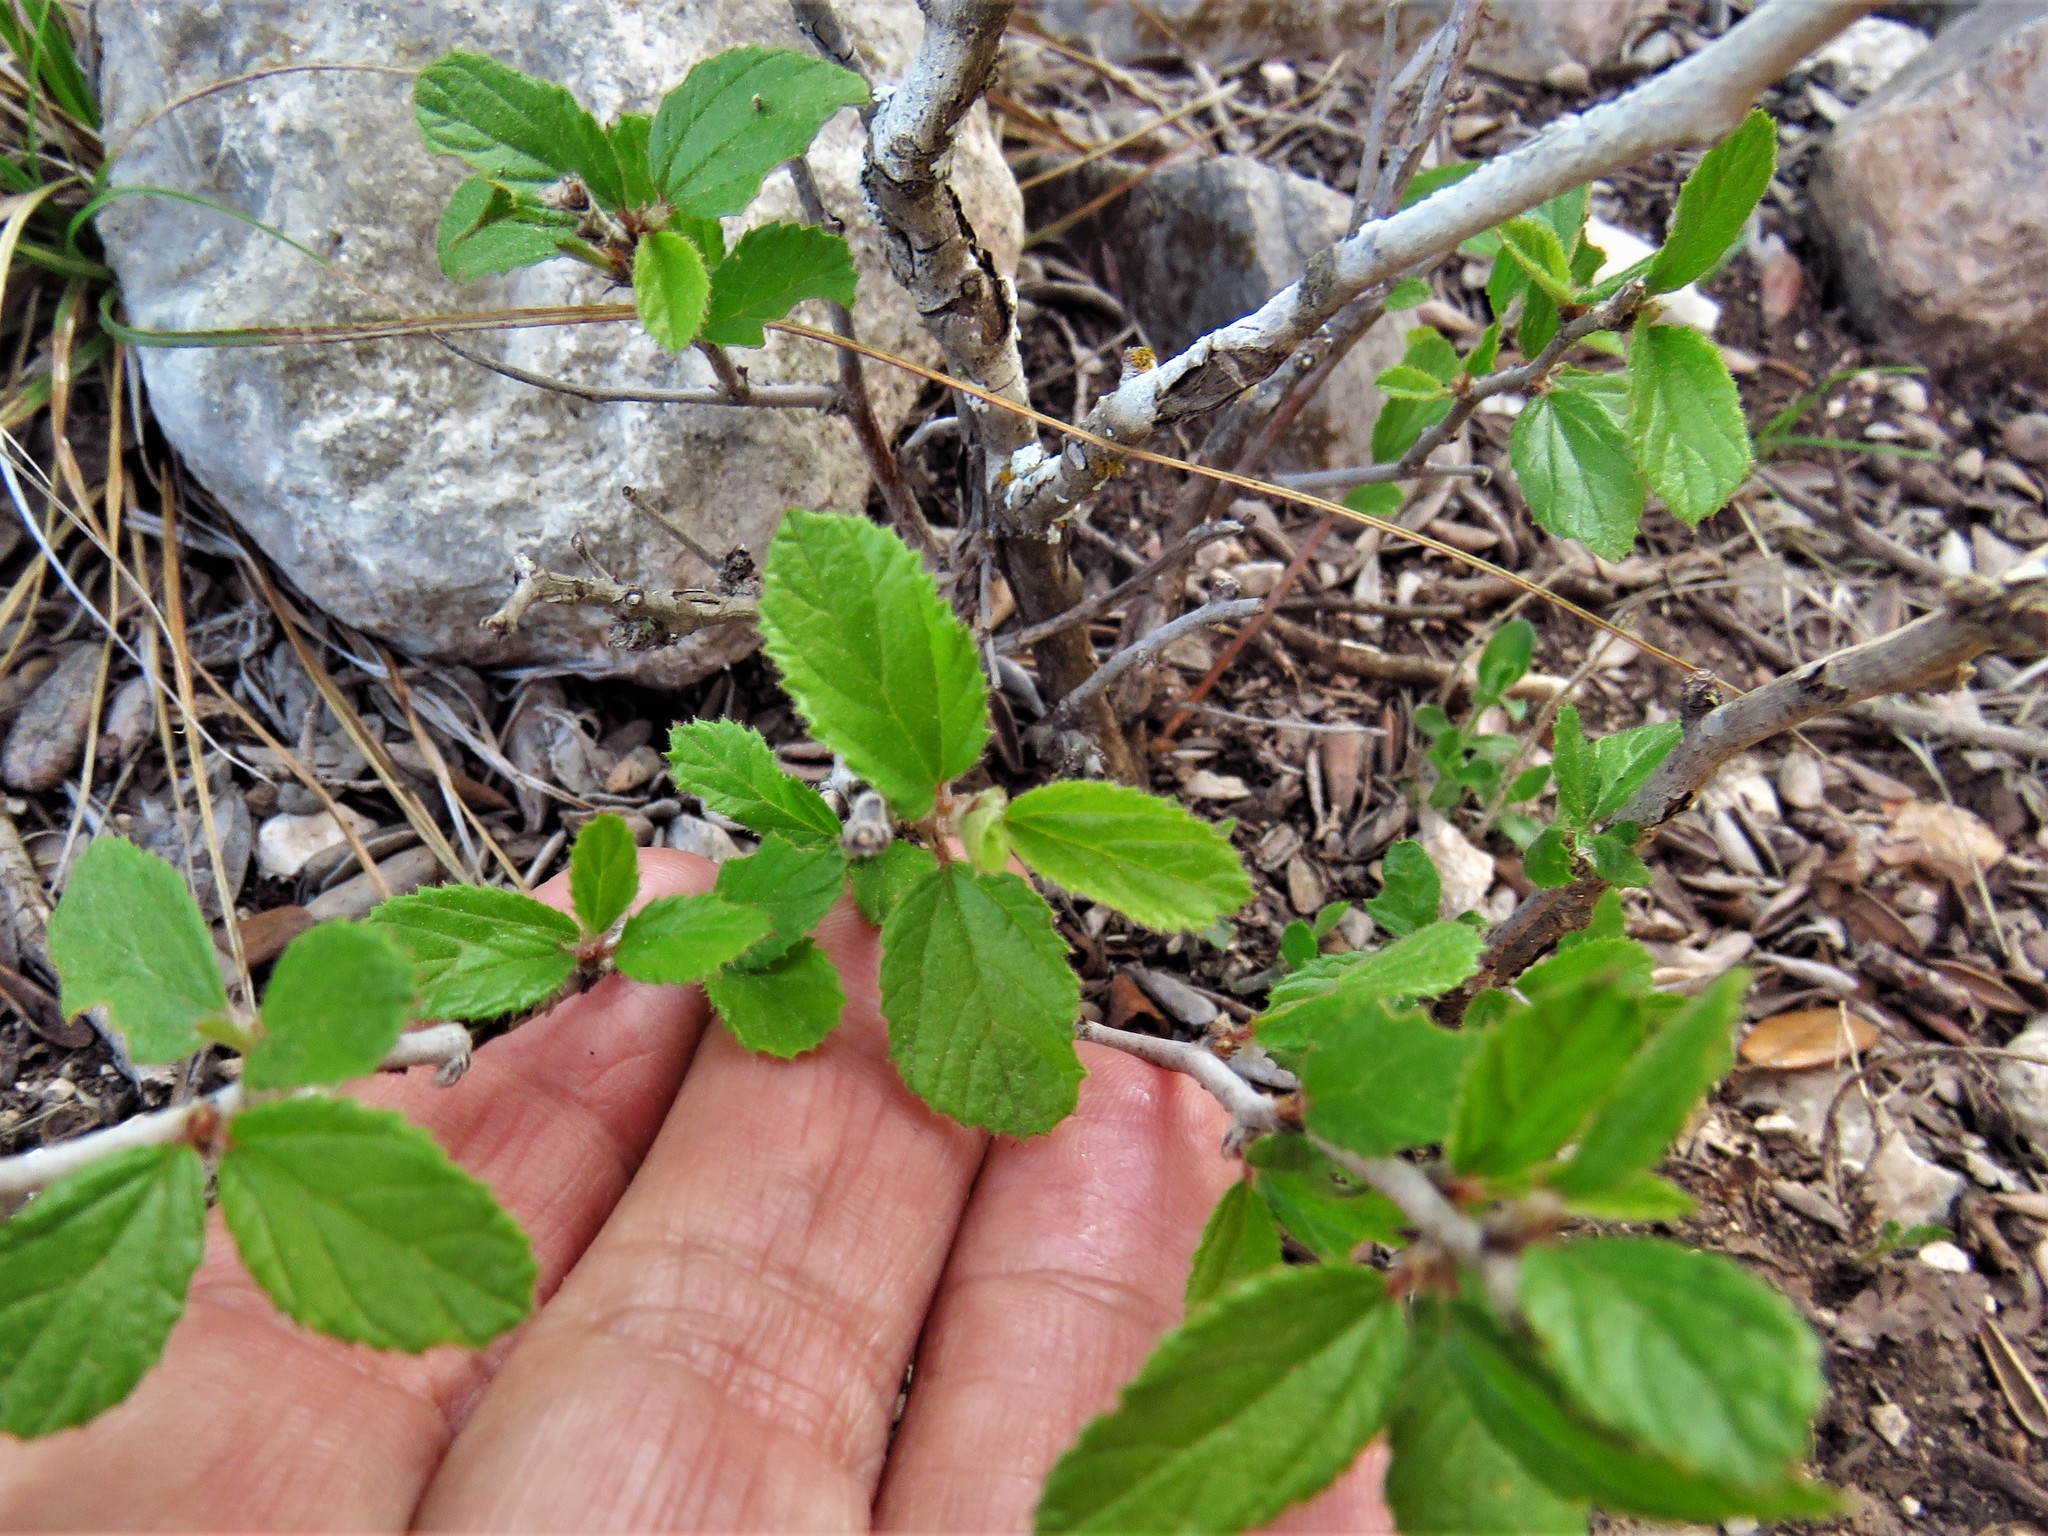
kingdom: Plantae
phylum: Tracheophyta
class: Magnoliopsida
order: Rosales
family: Rhamnaceae
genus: Colubrina
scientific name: Colubrina texensis
